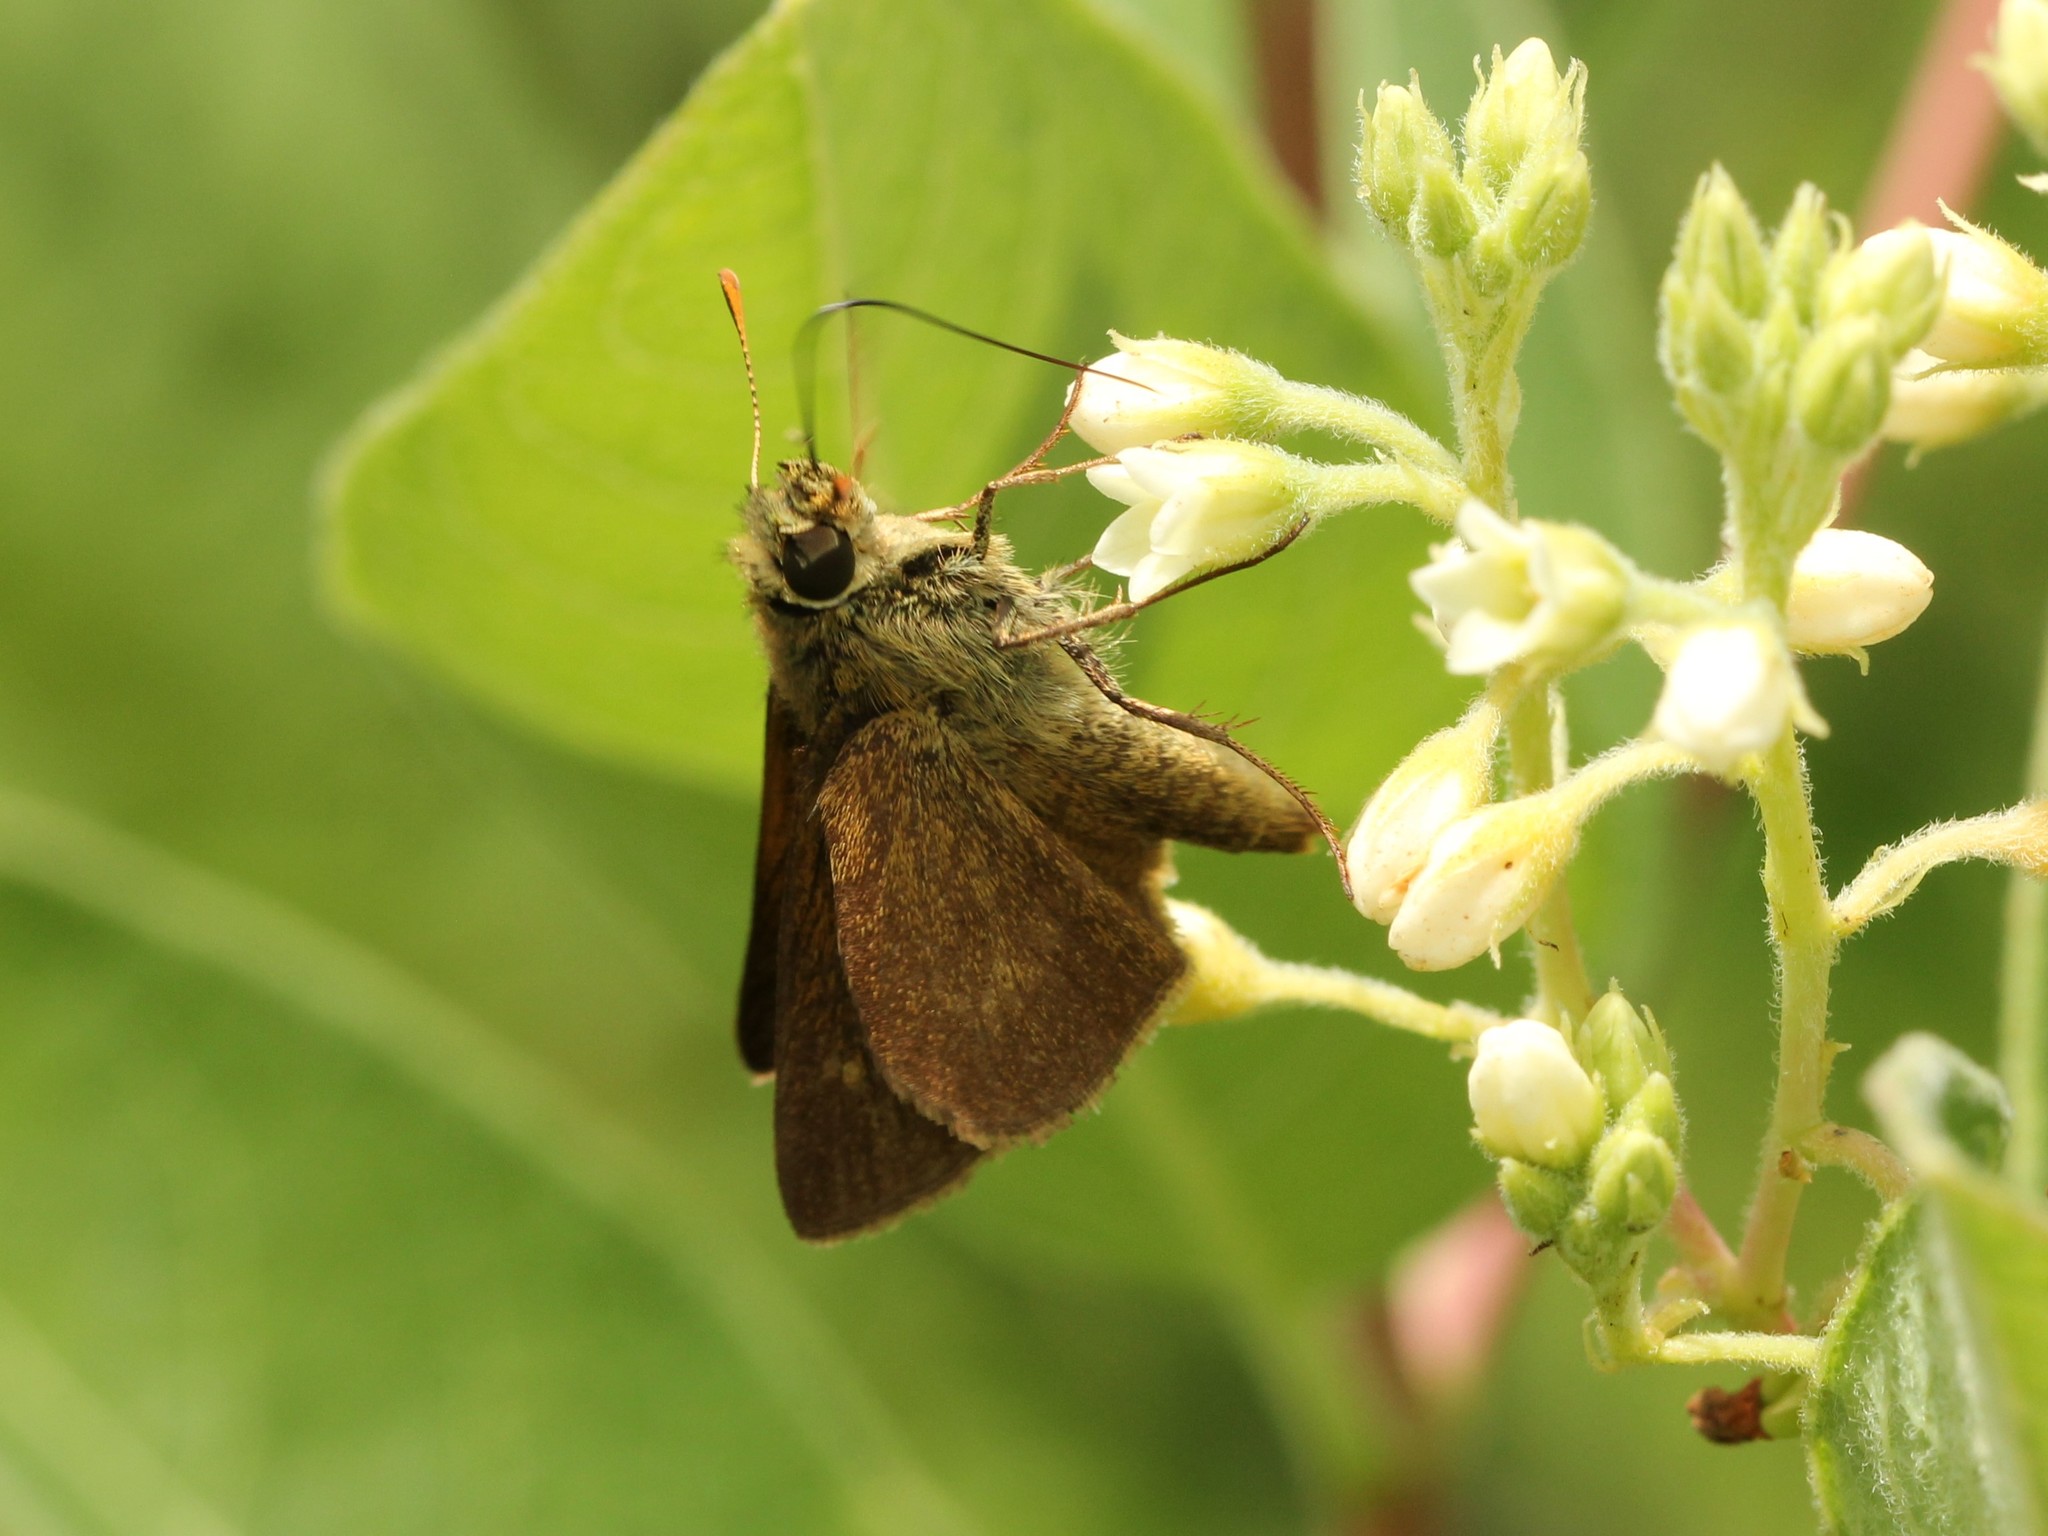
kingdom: Animalia
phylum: Arthropoda
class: Insecta
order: Lepidoptera
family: Hesperiidae
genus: Polites
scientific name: Polites egeremet
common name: Northern broken-dash
